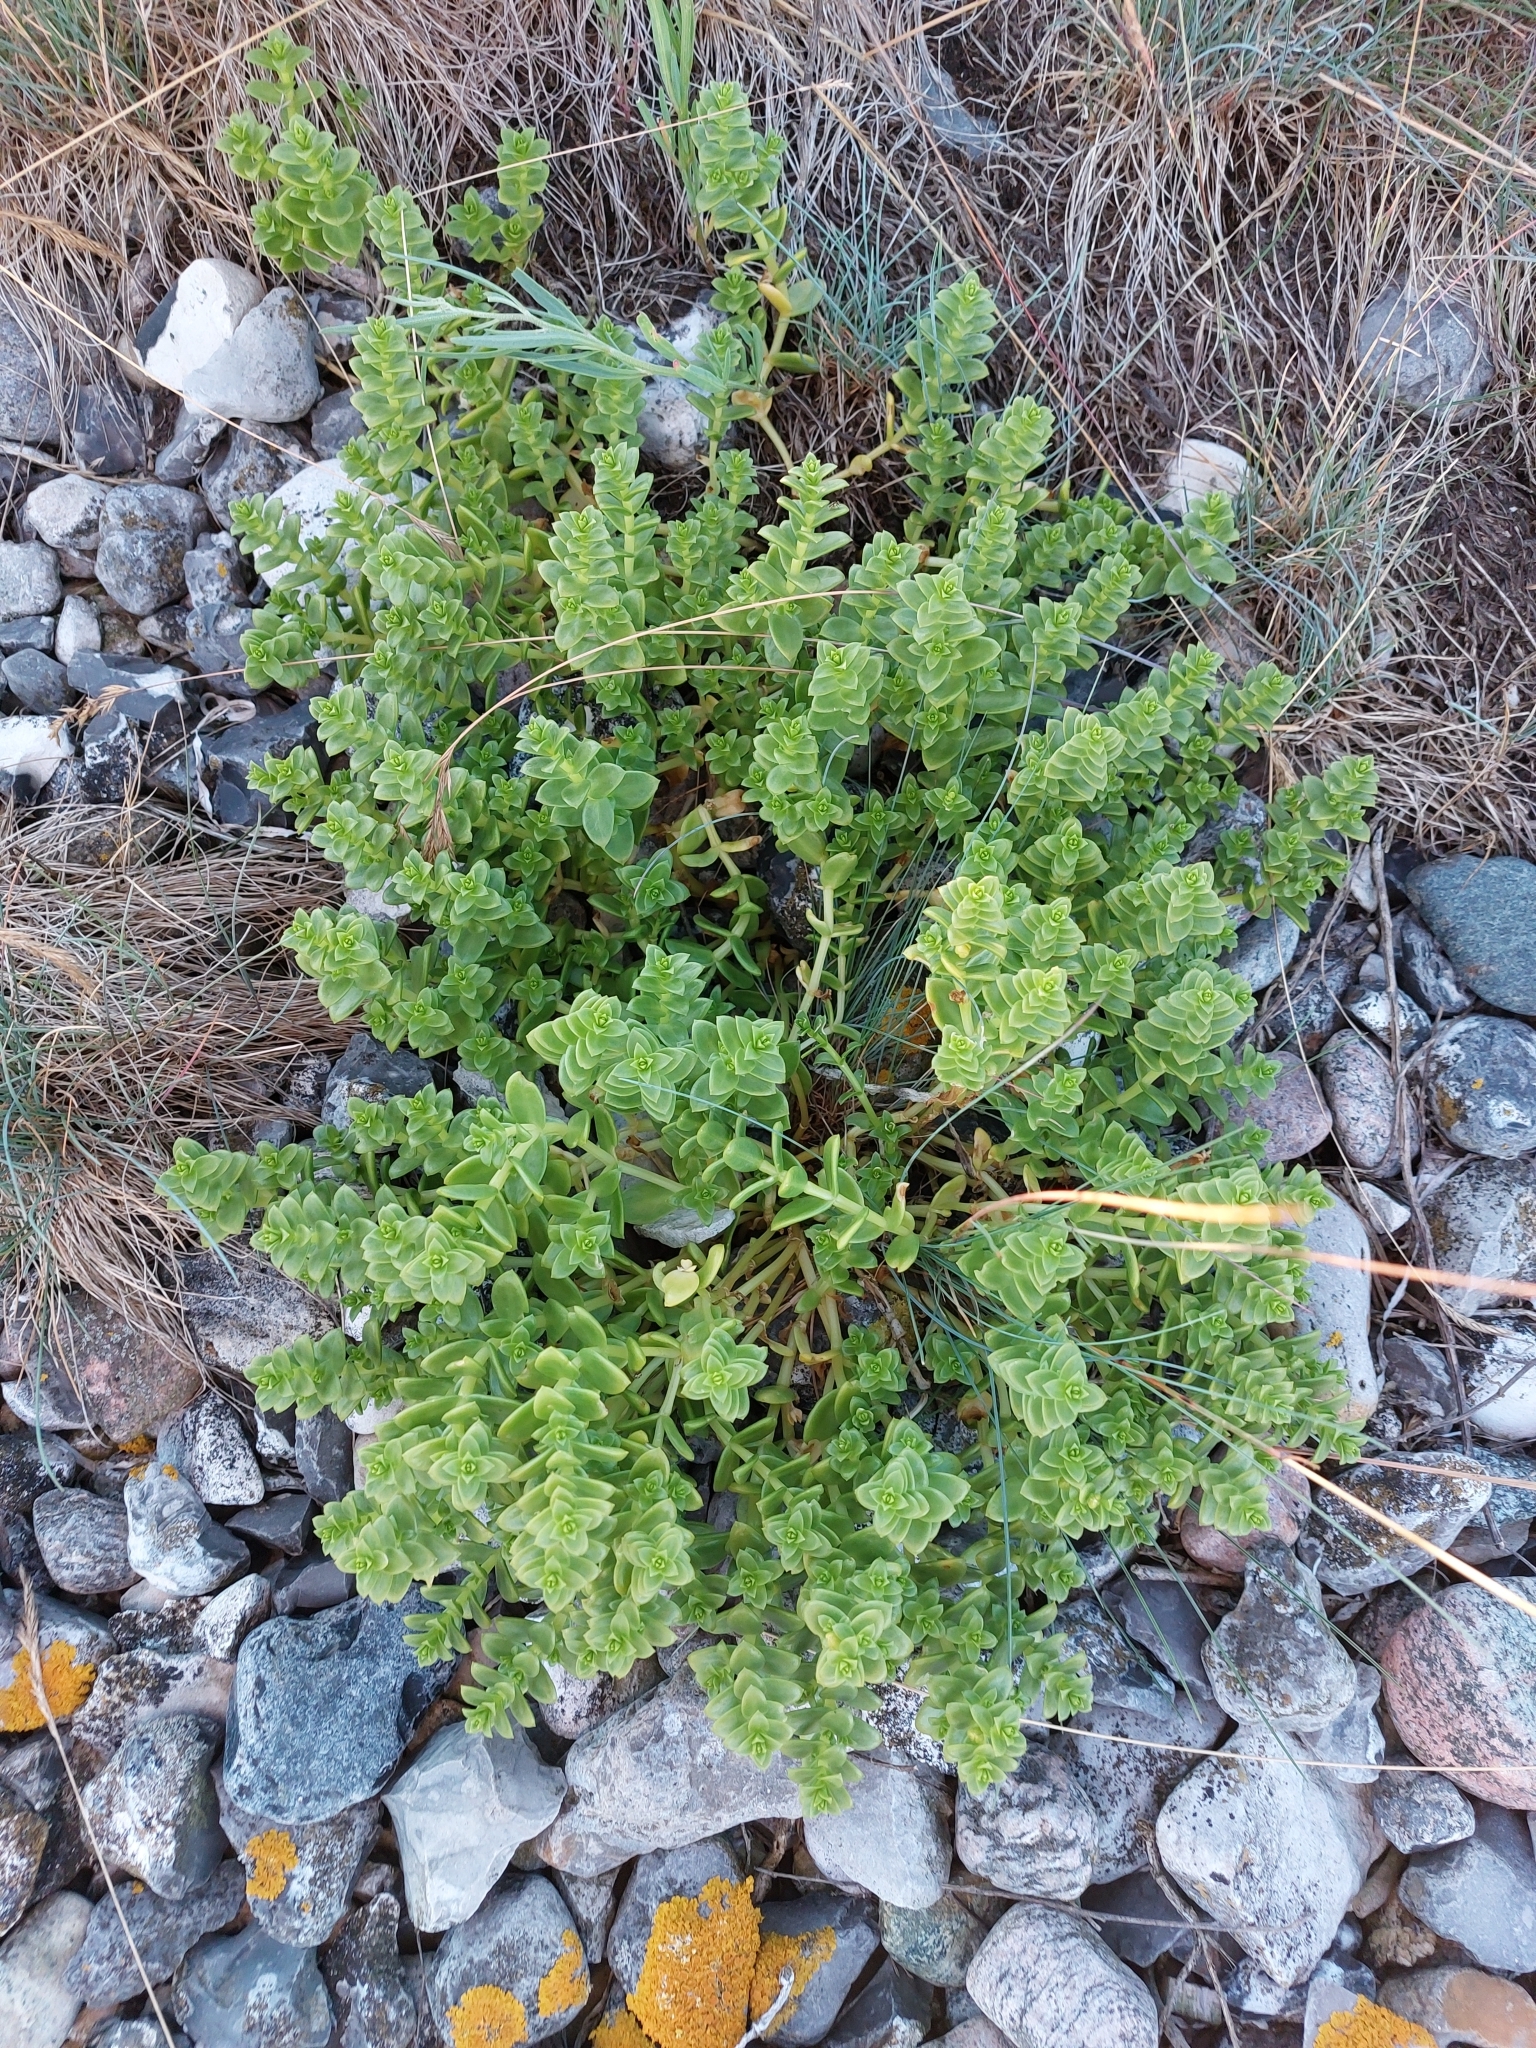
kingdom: Plantae
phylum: Tracheophyta
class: Magnoliopsida
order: Caryophyllales
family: Caryophyllaceae
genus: Honckenya
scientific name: Honckenya peploides
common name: Sea sandwort
